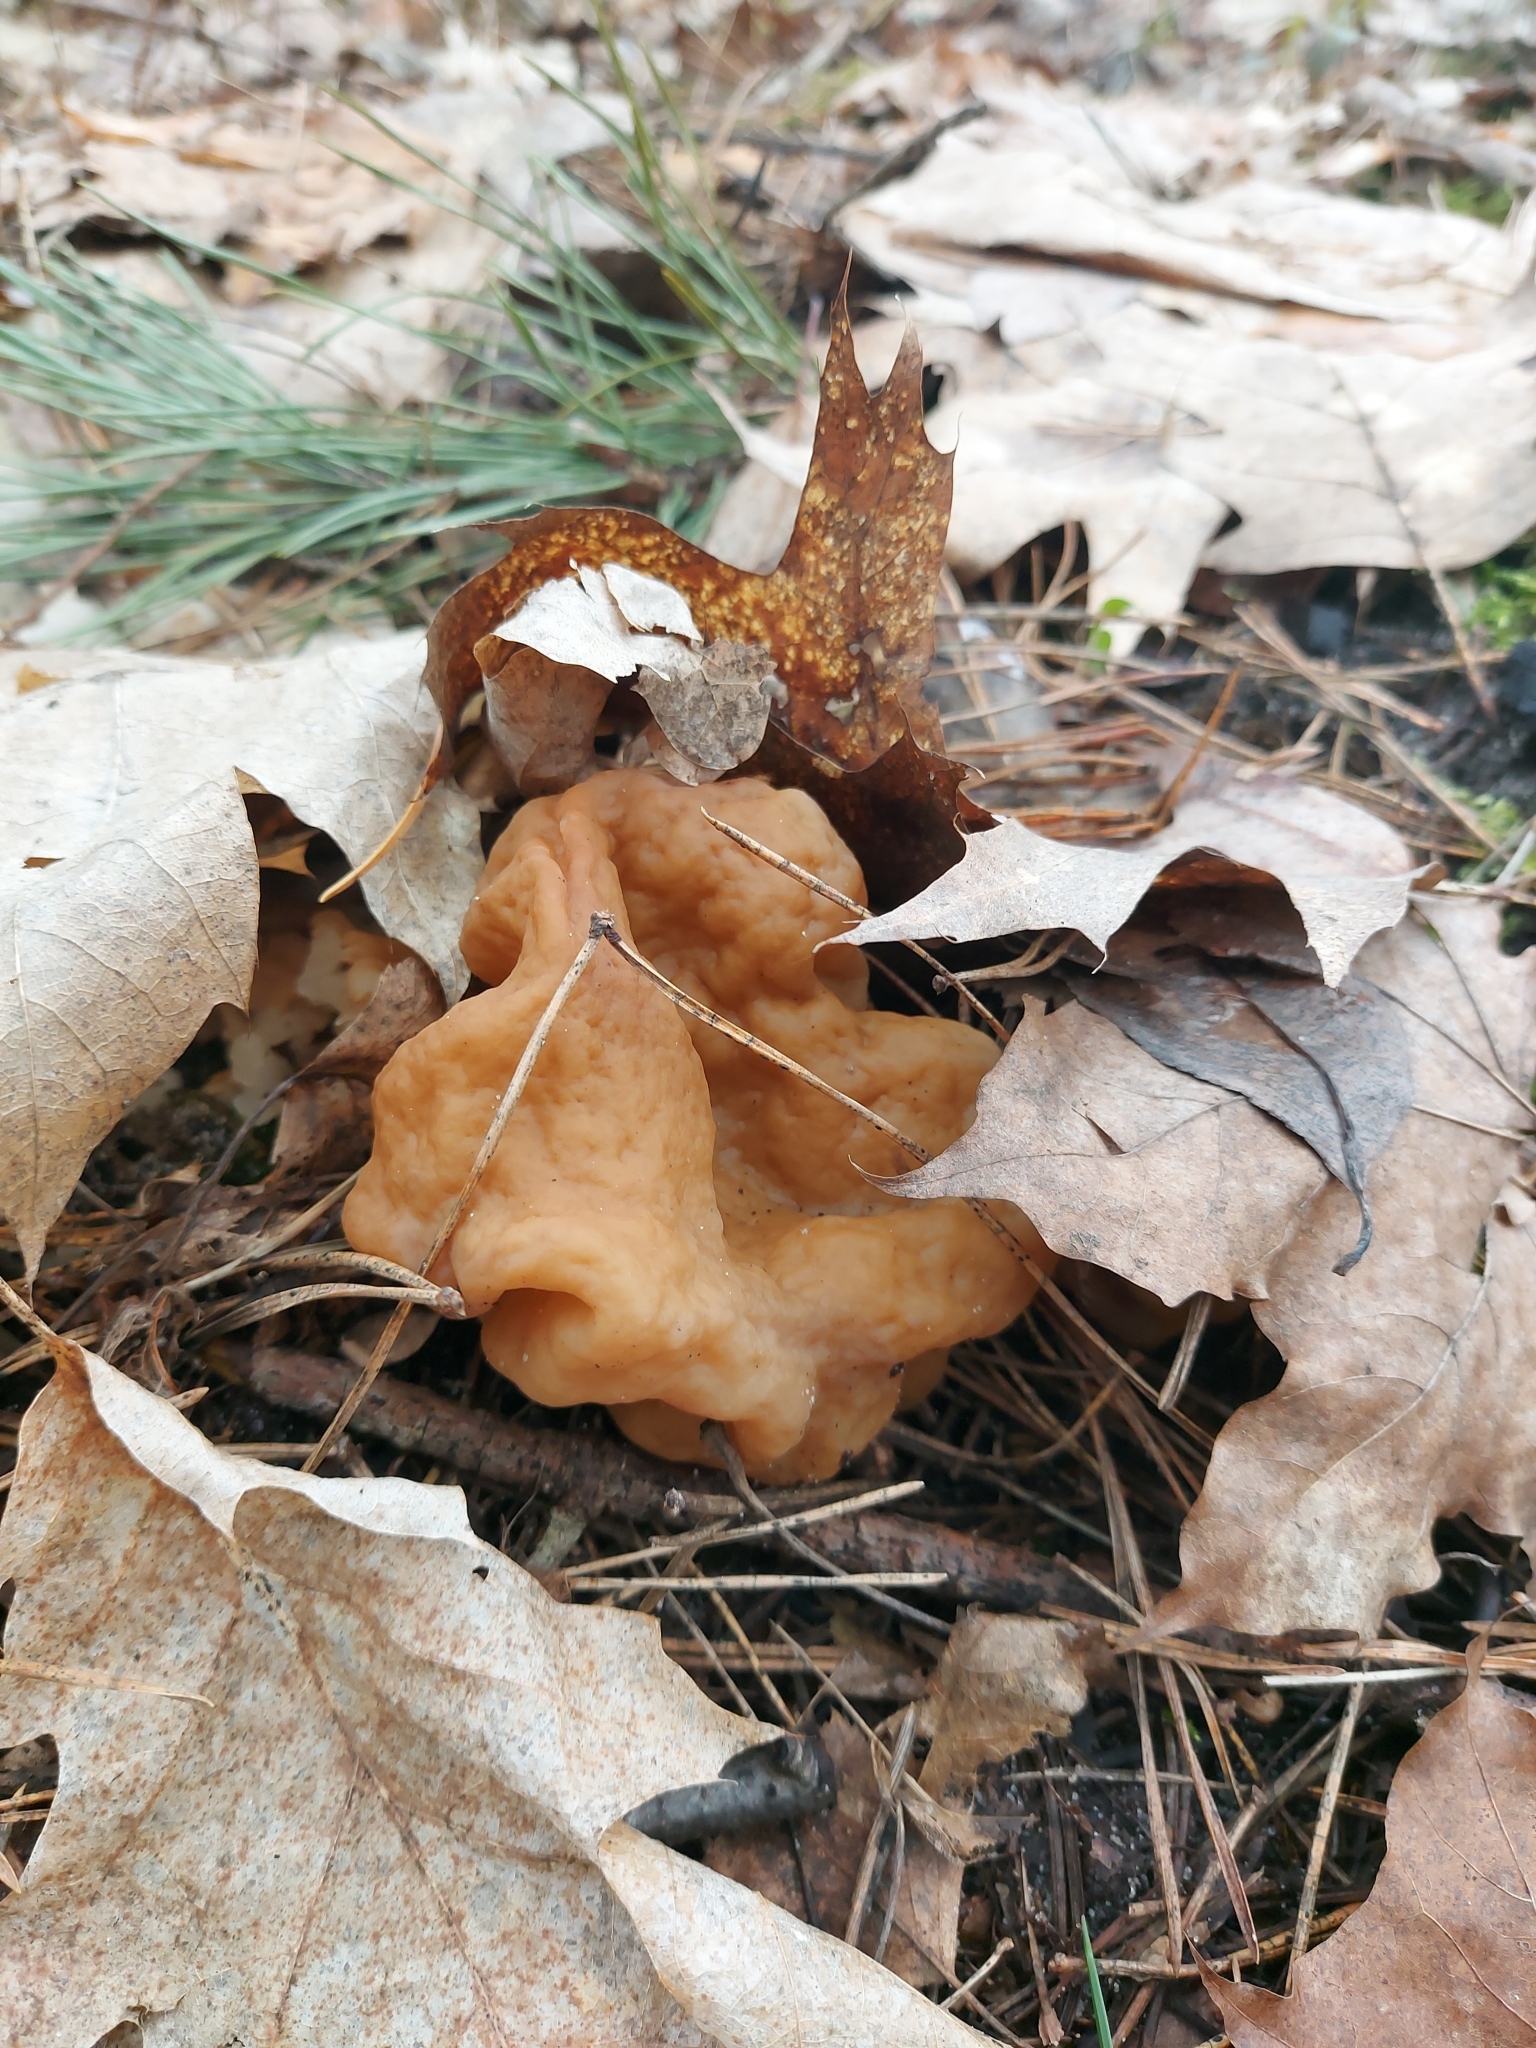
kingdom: Fungi
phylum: Ascomycota
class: Pezizomycetes
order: Pezizales
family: Discinaceae
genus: Gyromitra
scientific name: Gyromitra gigas
